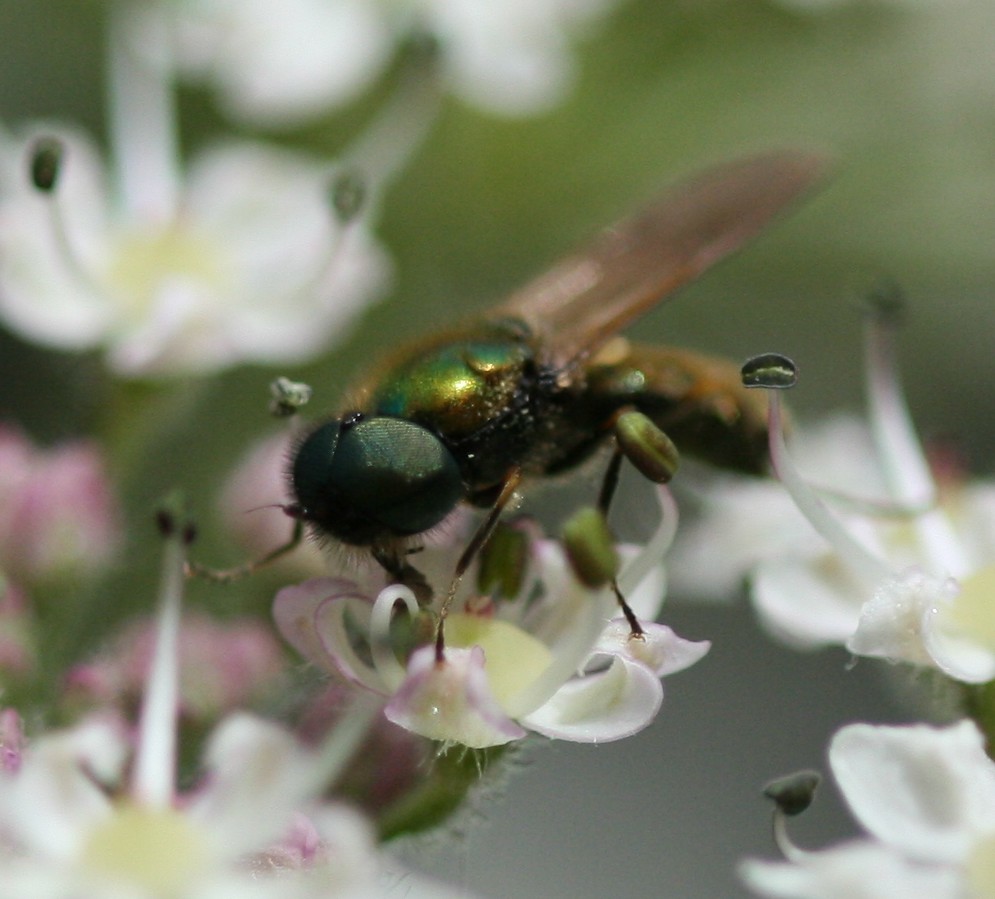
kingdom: Animalia
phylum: Arthropoda
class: Insecta
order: Diptera
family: Stratiomyidae
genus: Chloromyia
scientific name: Chloromyia formosa
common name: Soldier fly
